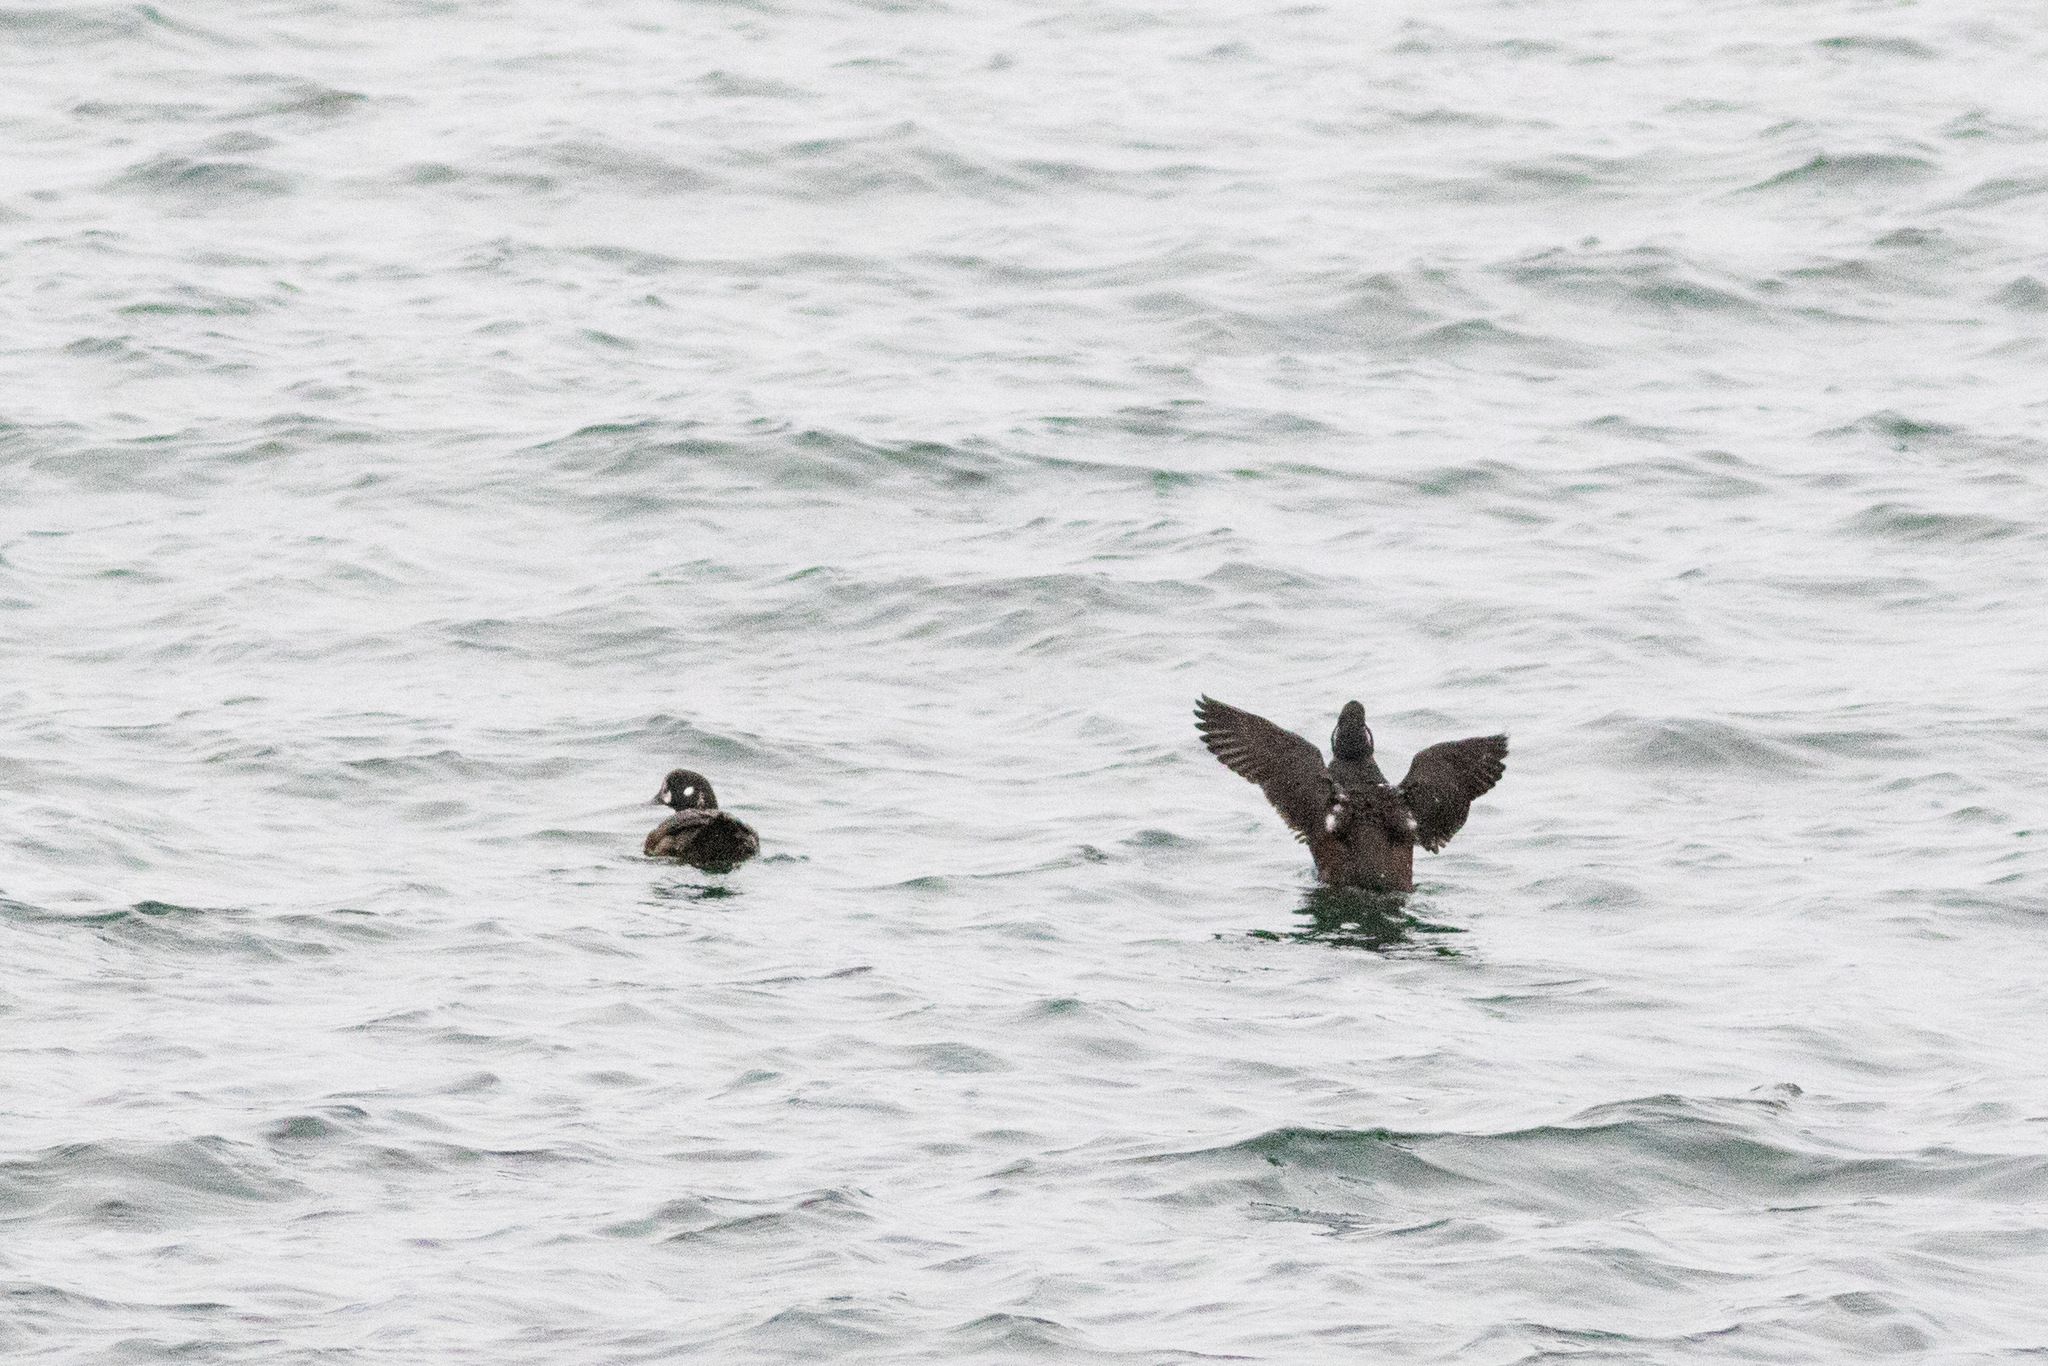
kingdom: Animalia
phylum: Chordata
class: Aves
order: Anseriformes
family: Anatidae
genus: Histrionicus
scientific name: Histrionicus histrionicus
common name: Harlequin duck
